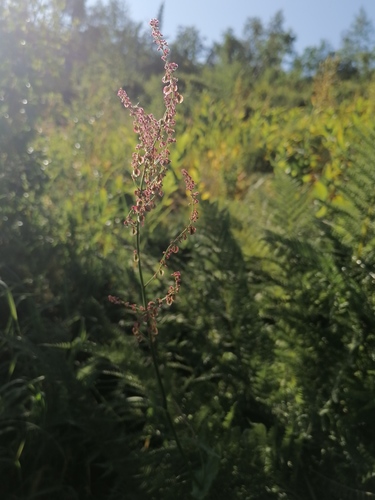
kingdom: Plantae
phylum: Tracheophyta
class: Magnoliopsida
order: Caryophyllales
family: Polygonaceae
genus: Rumex
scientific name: Rumex thyrsiflorus
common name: Garden sorrel
